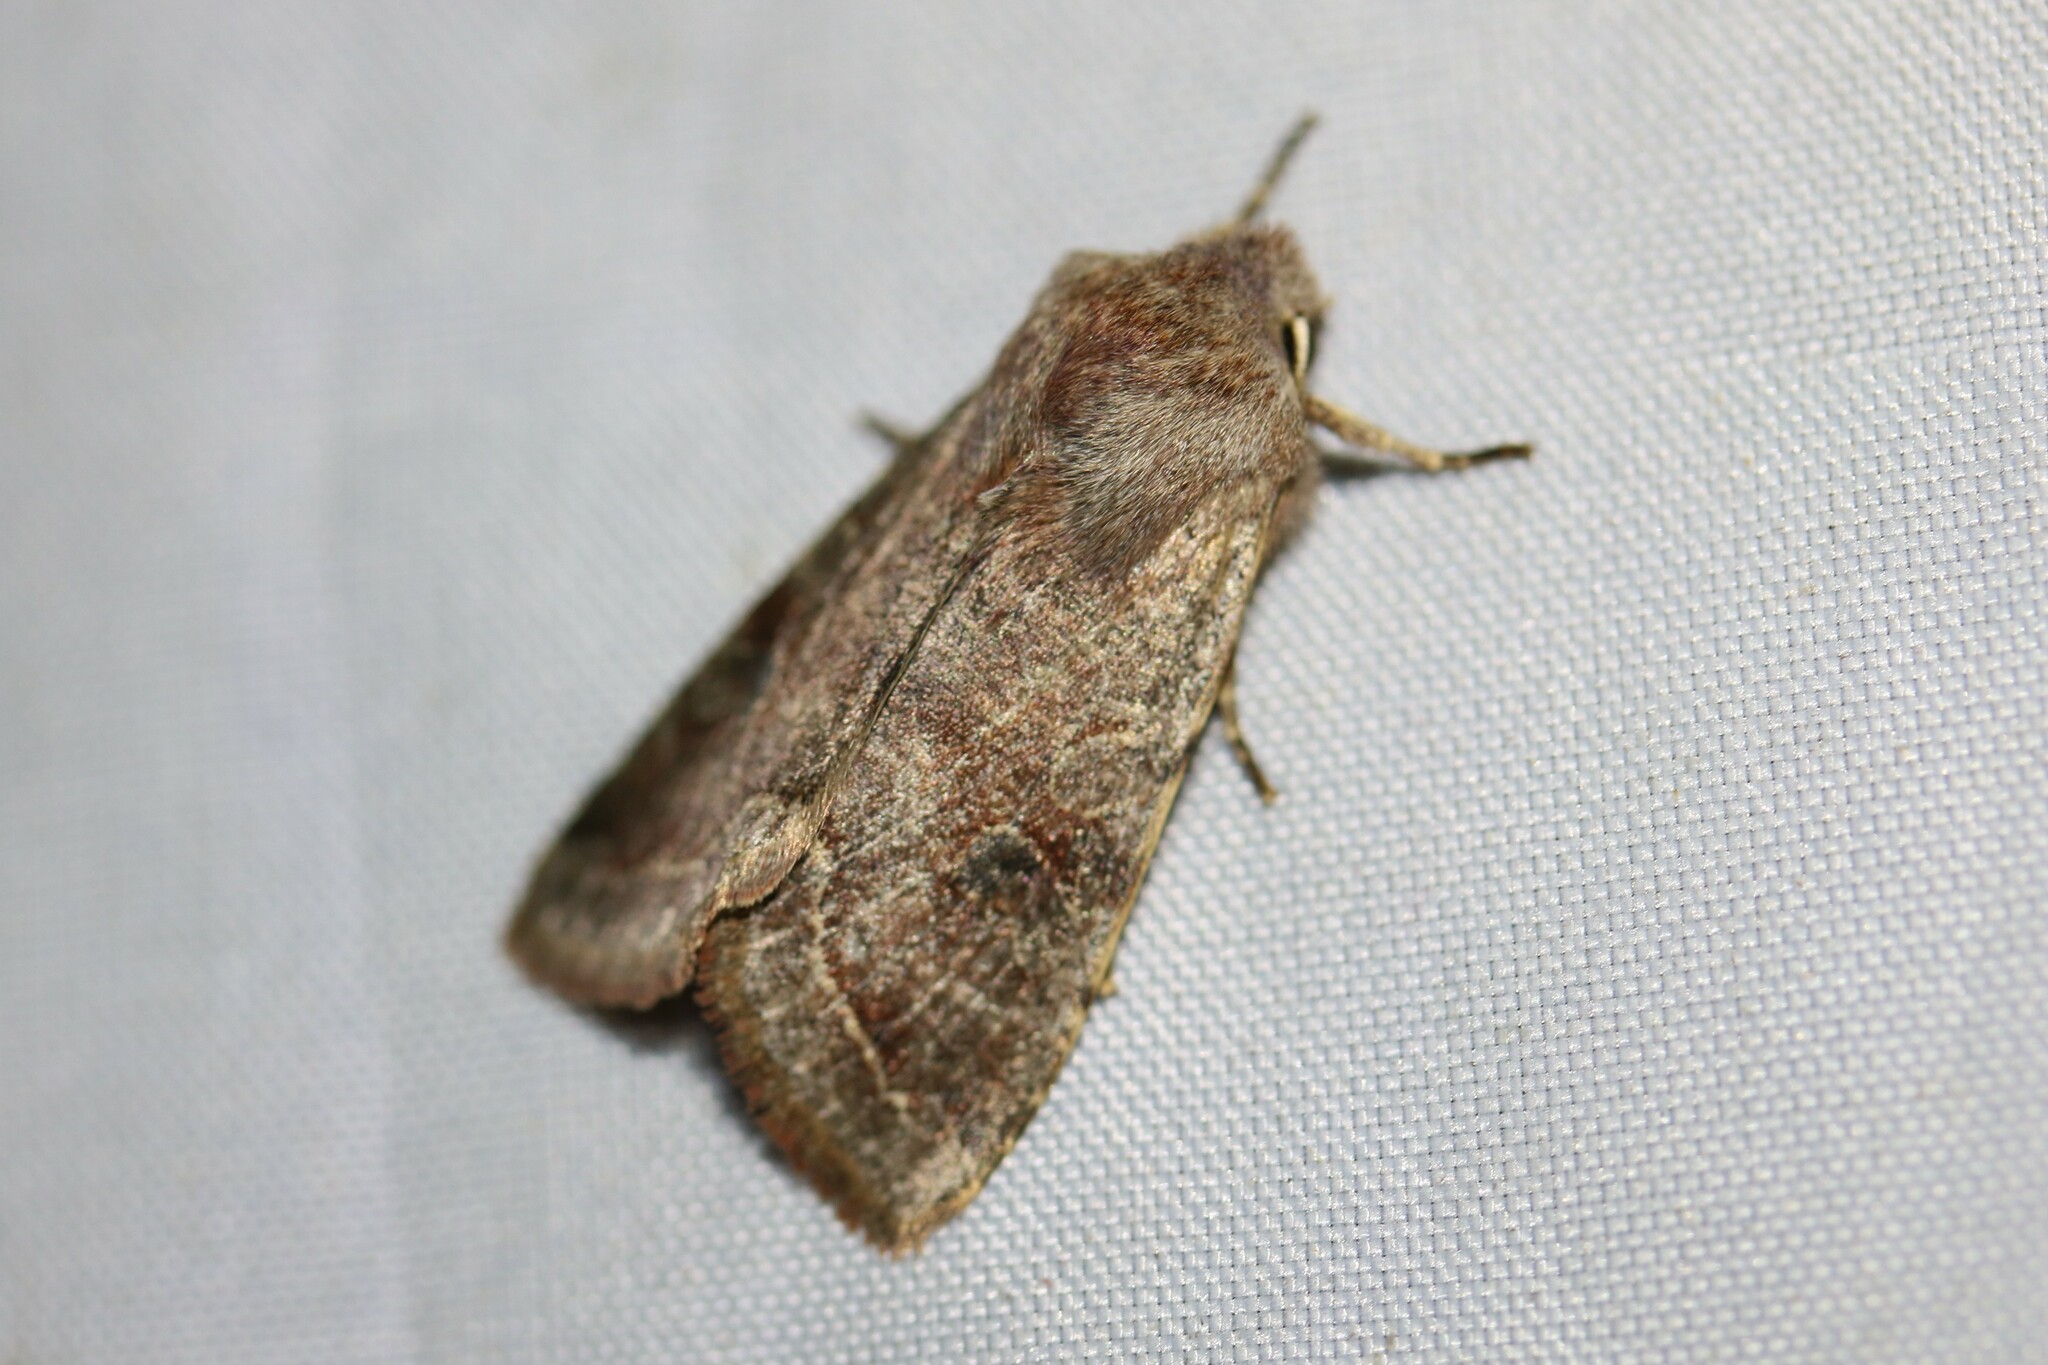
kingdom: Animalia
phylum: Arthropoda
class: Insecta
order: Lepidoptera
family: Noctuidae
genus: Orthosia
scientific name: Orthosia incerta
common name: Clouded drab
